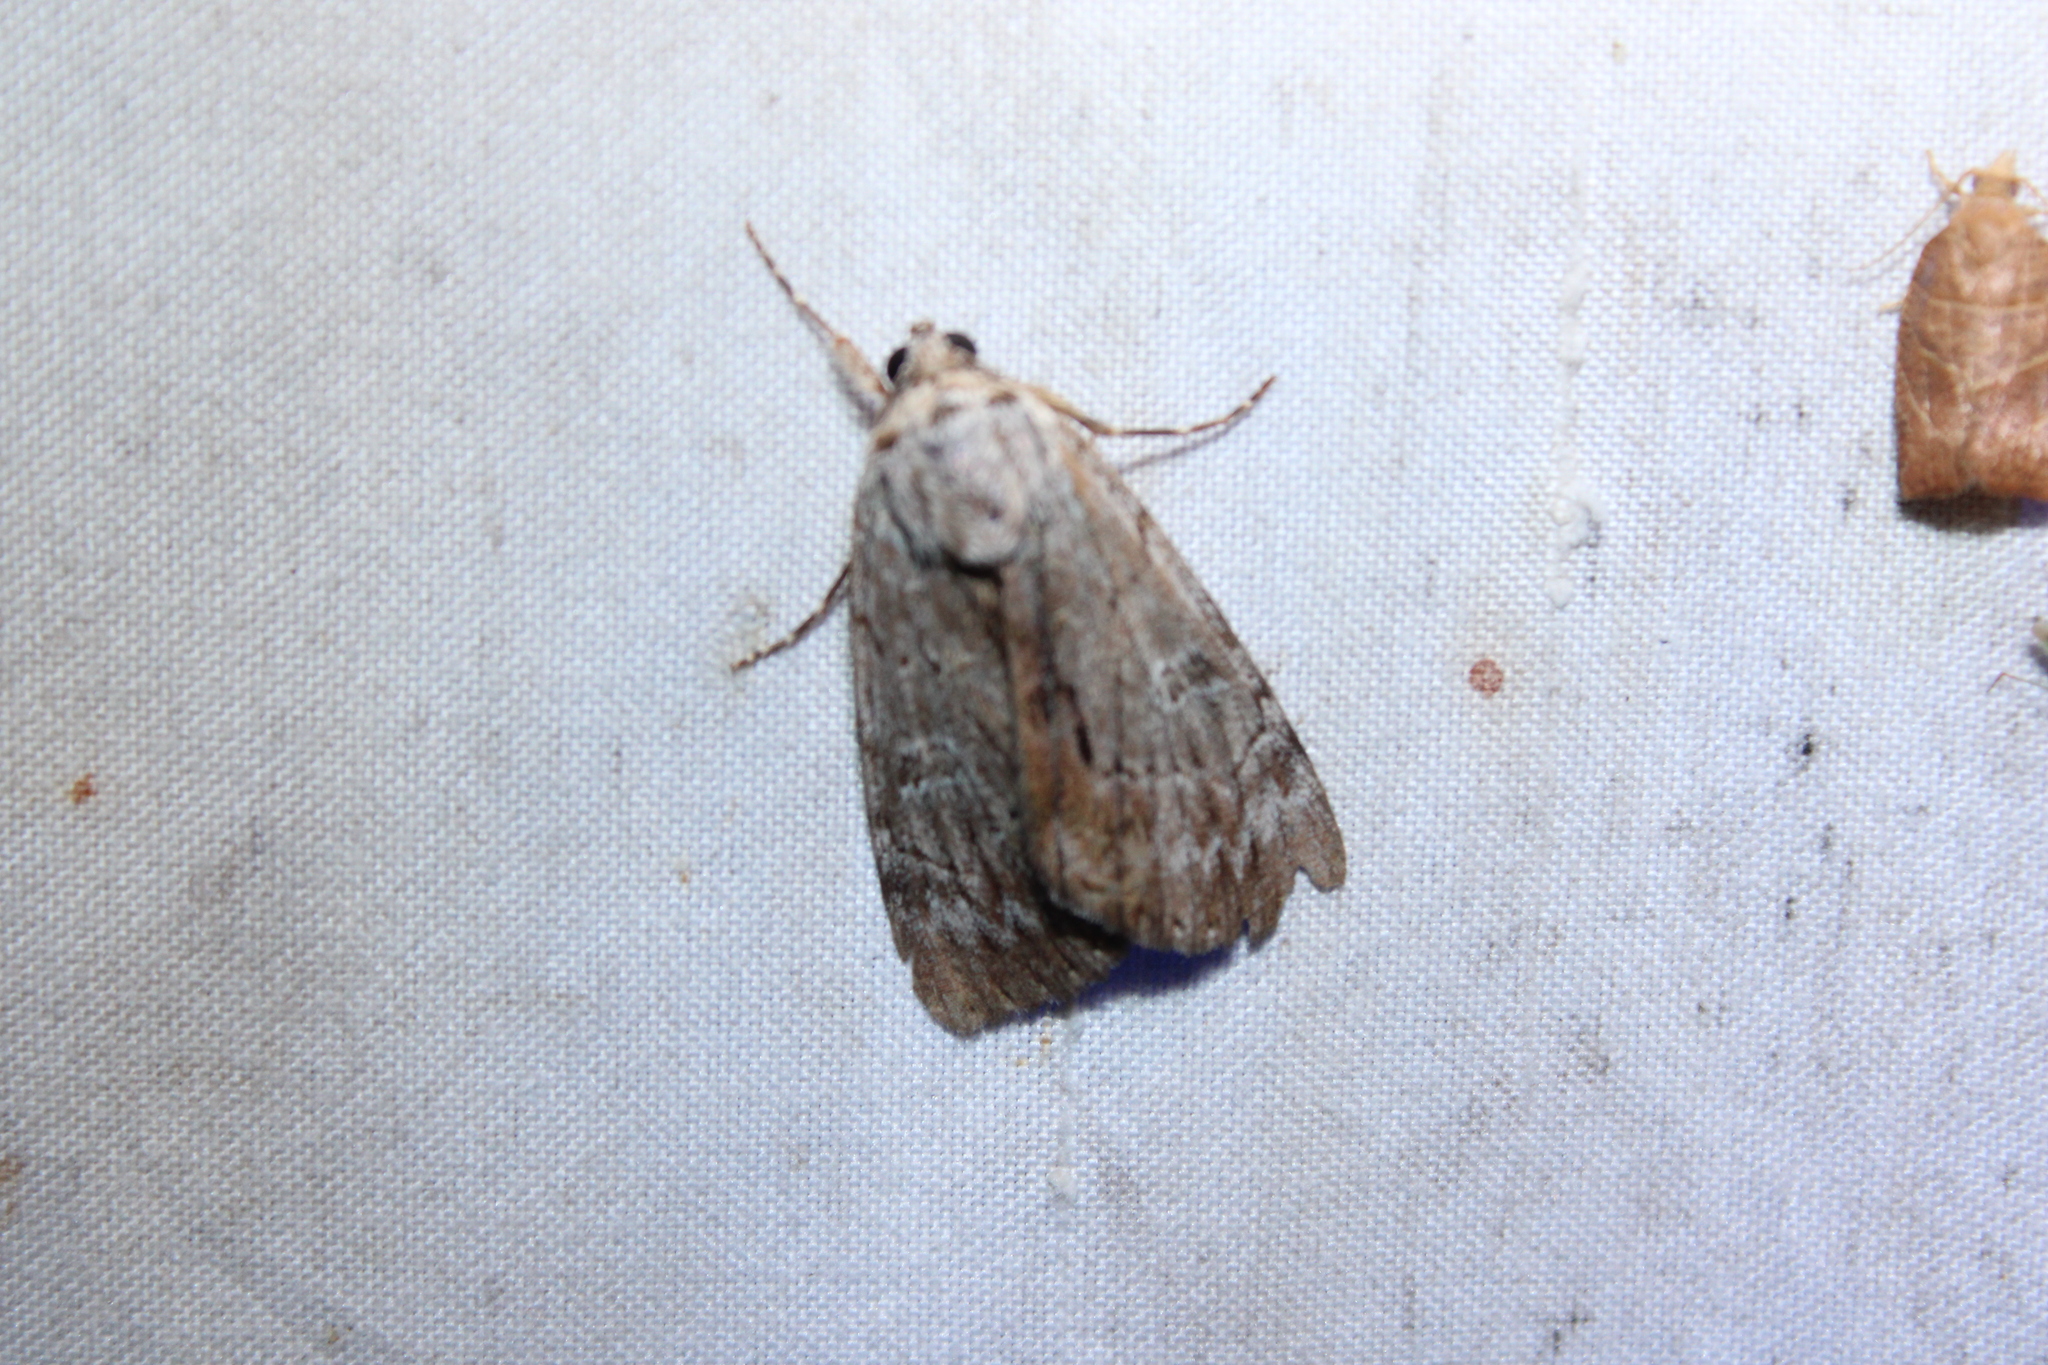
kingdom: Animalia
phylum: Arthropoda
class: Insecta
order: Lepidoptera
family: Erebidae
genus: Catocala
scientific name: Catocala sordida
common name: Sordid underwing
